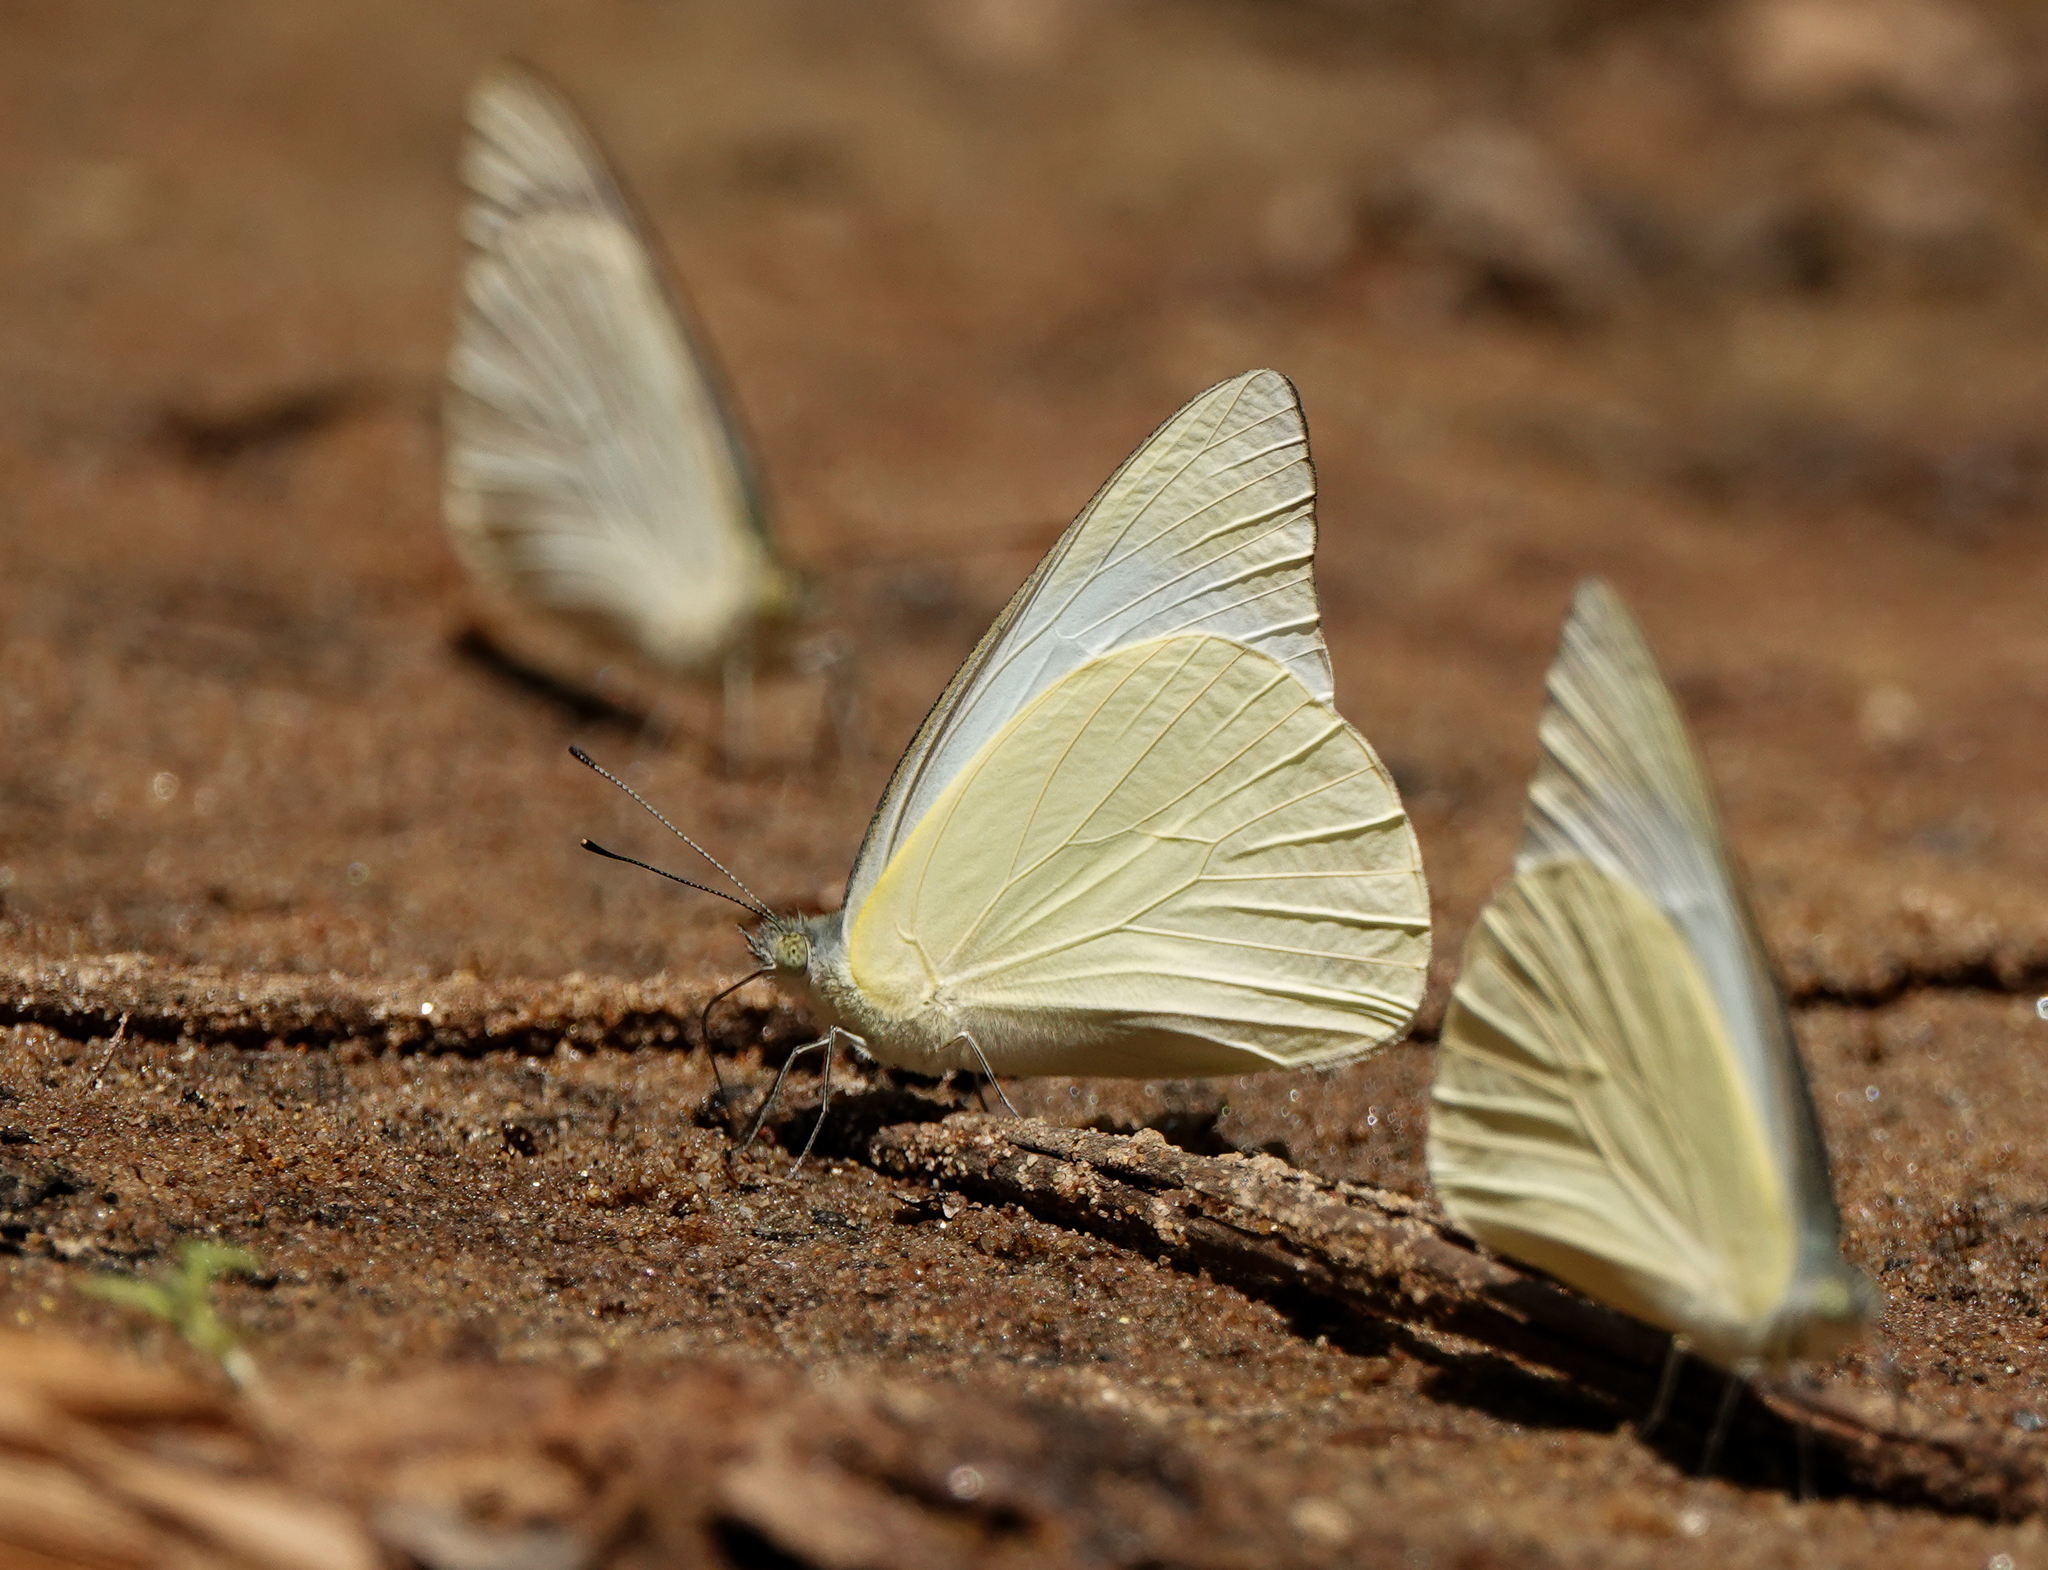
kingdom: Animalia
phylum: Arthropoda
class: Insecta
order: Lepidoptera
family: Pieridae
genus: Appias
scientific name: Appias albina
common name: Common albatross
